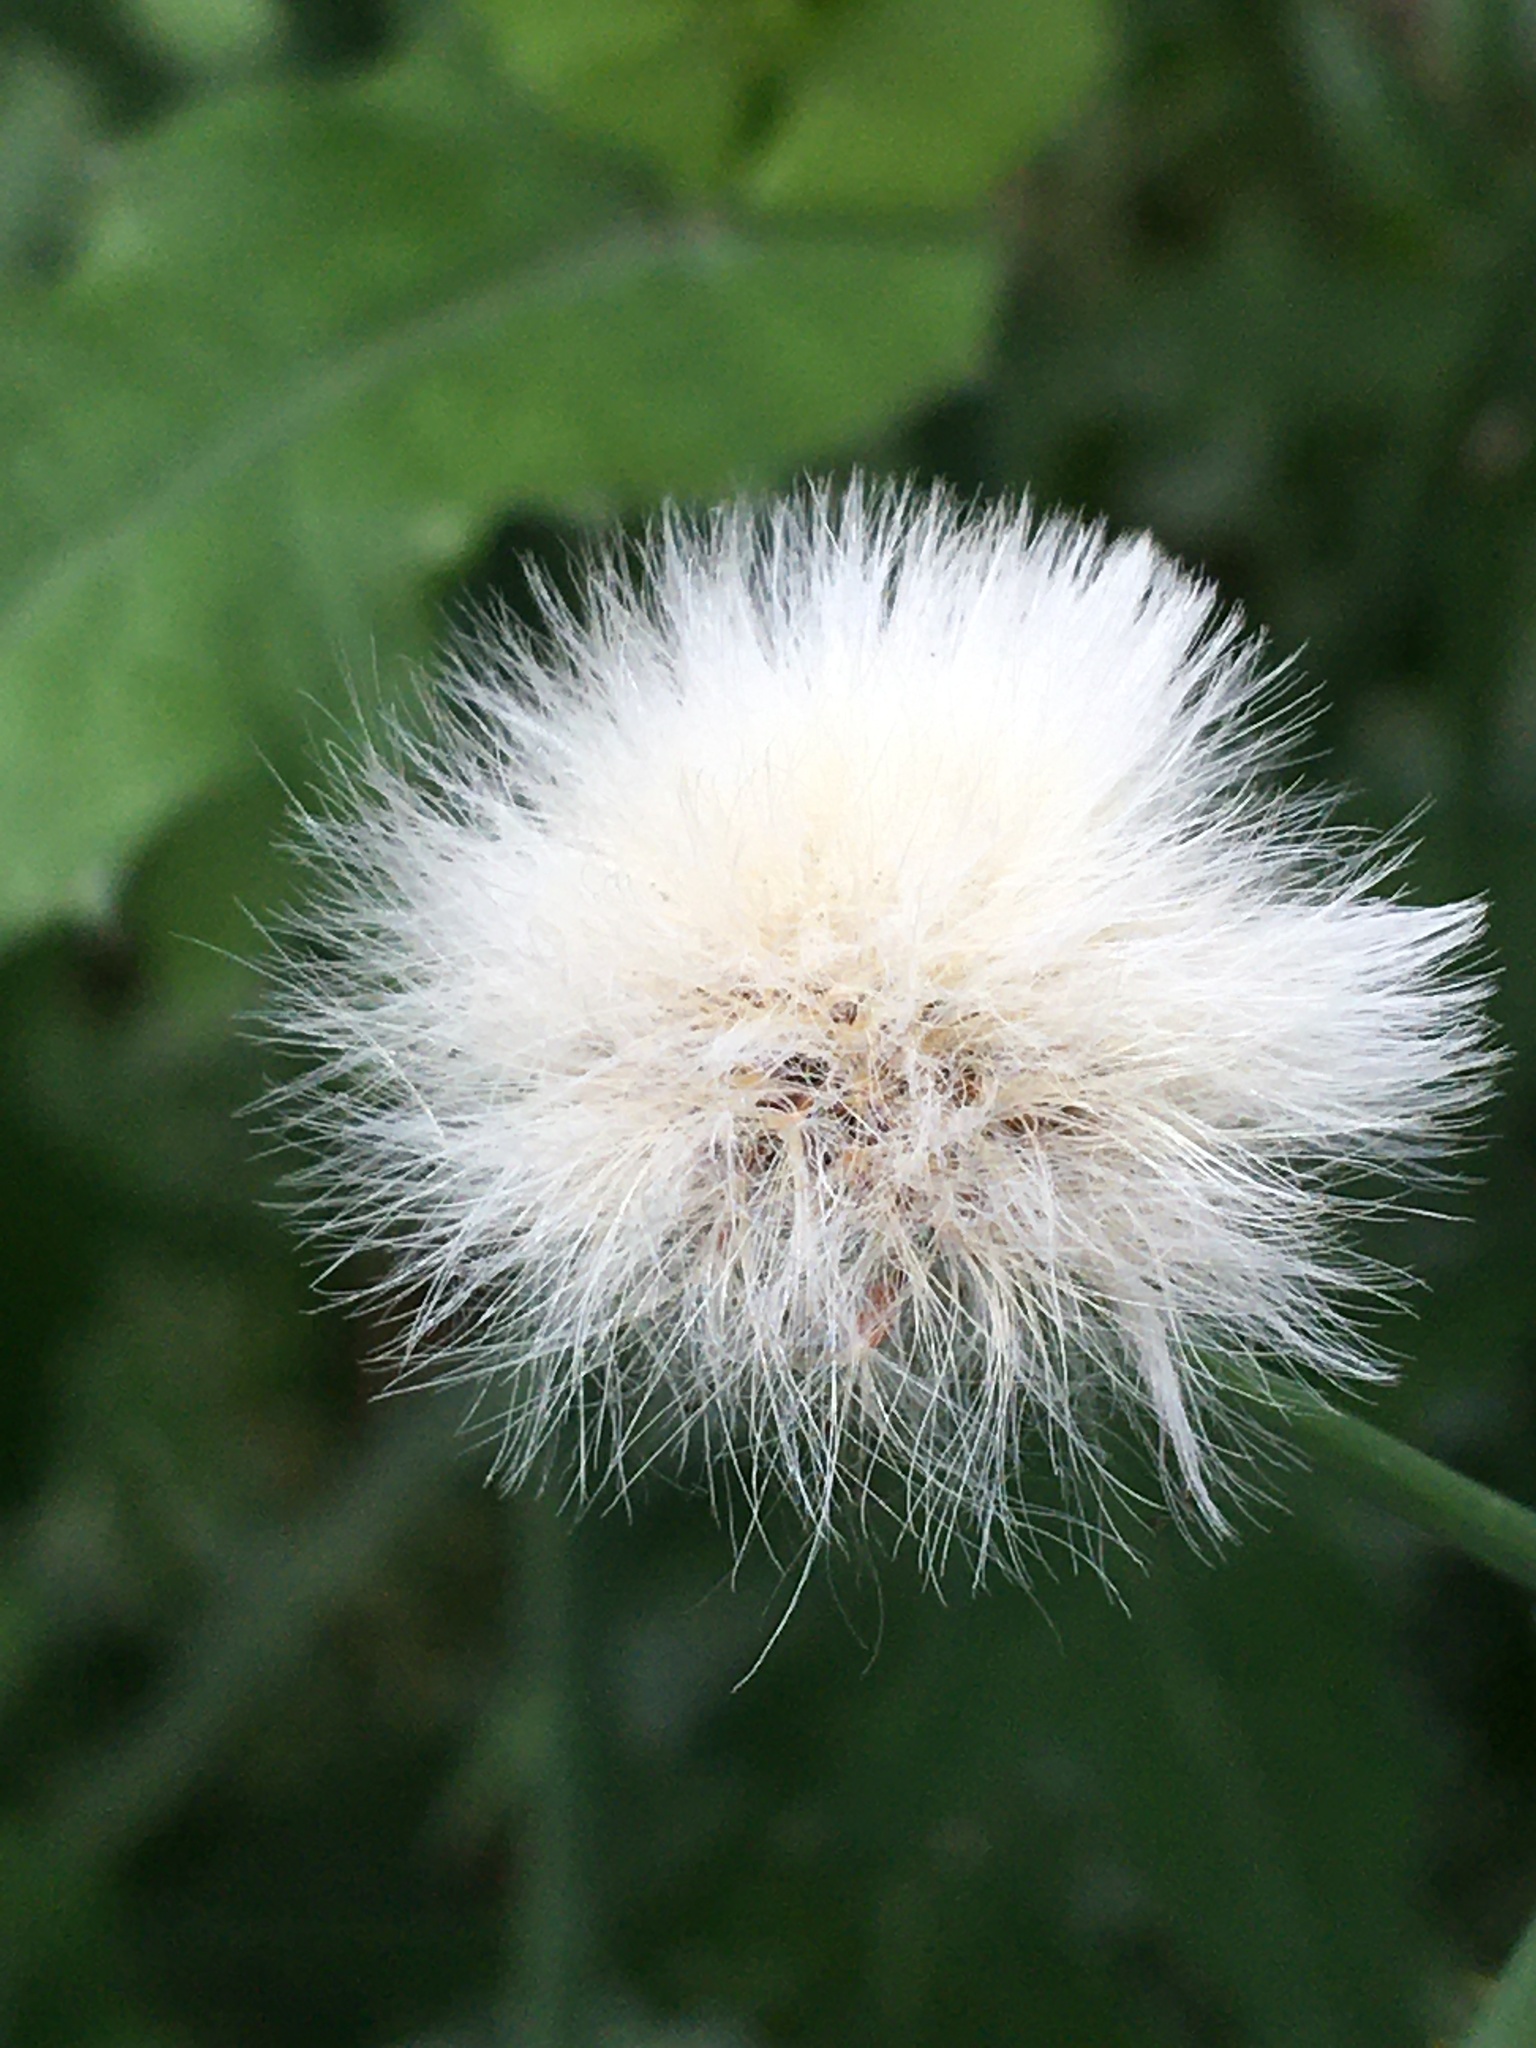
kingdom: Plantae
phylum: Tracheophyta
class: Magnoliopsida
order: Asterales
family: Asteraceae
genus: Sonchus
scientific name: Sonchus oleraceus
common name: Common sowthistle
